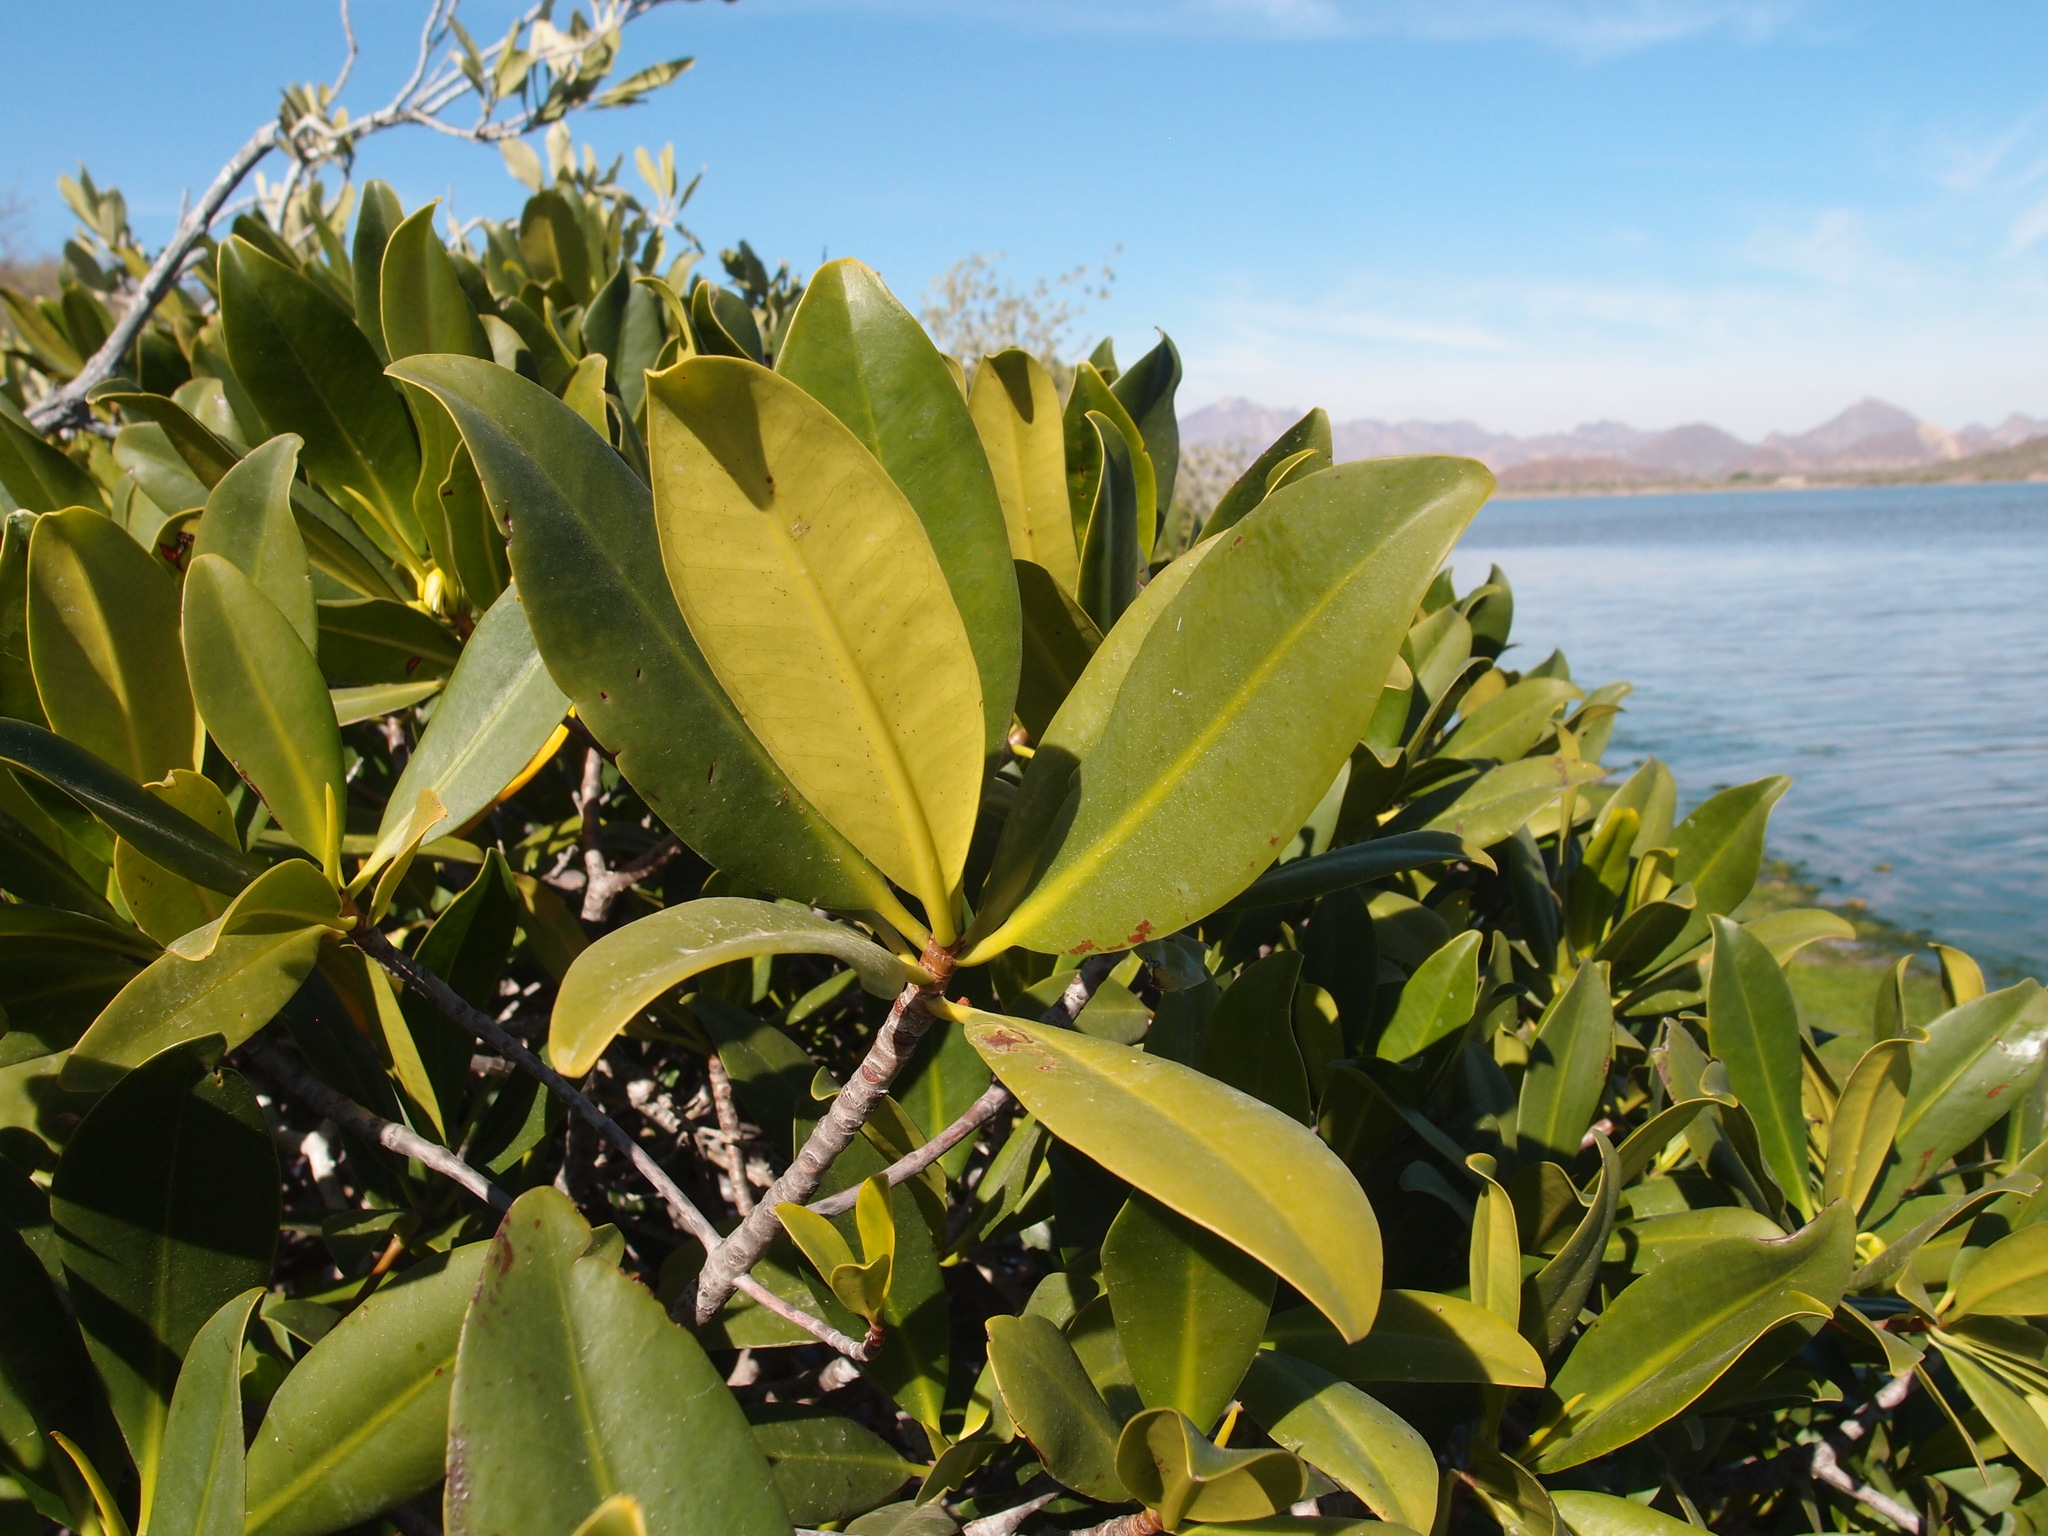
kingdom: Plantae
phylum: Tracheophyta
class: Magnoliopsida
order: Malpighiales
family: Rhizophoraceae
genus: Rhizophora
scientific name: Rhizophora mangle
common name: Red mangrove
